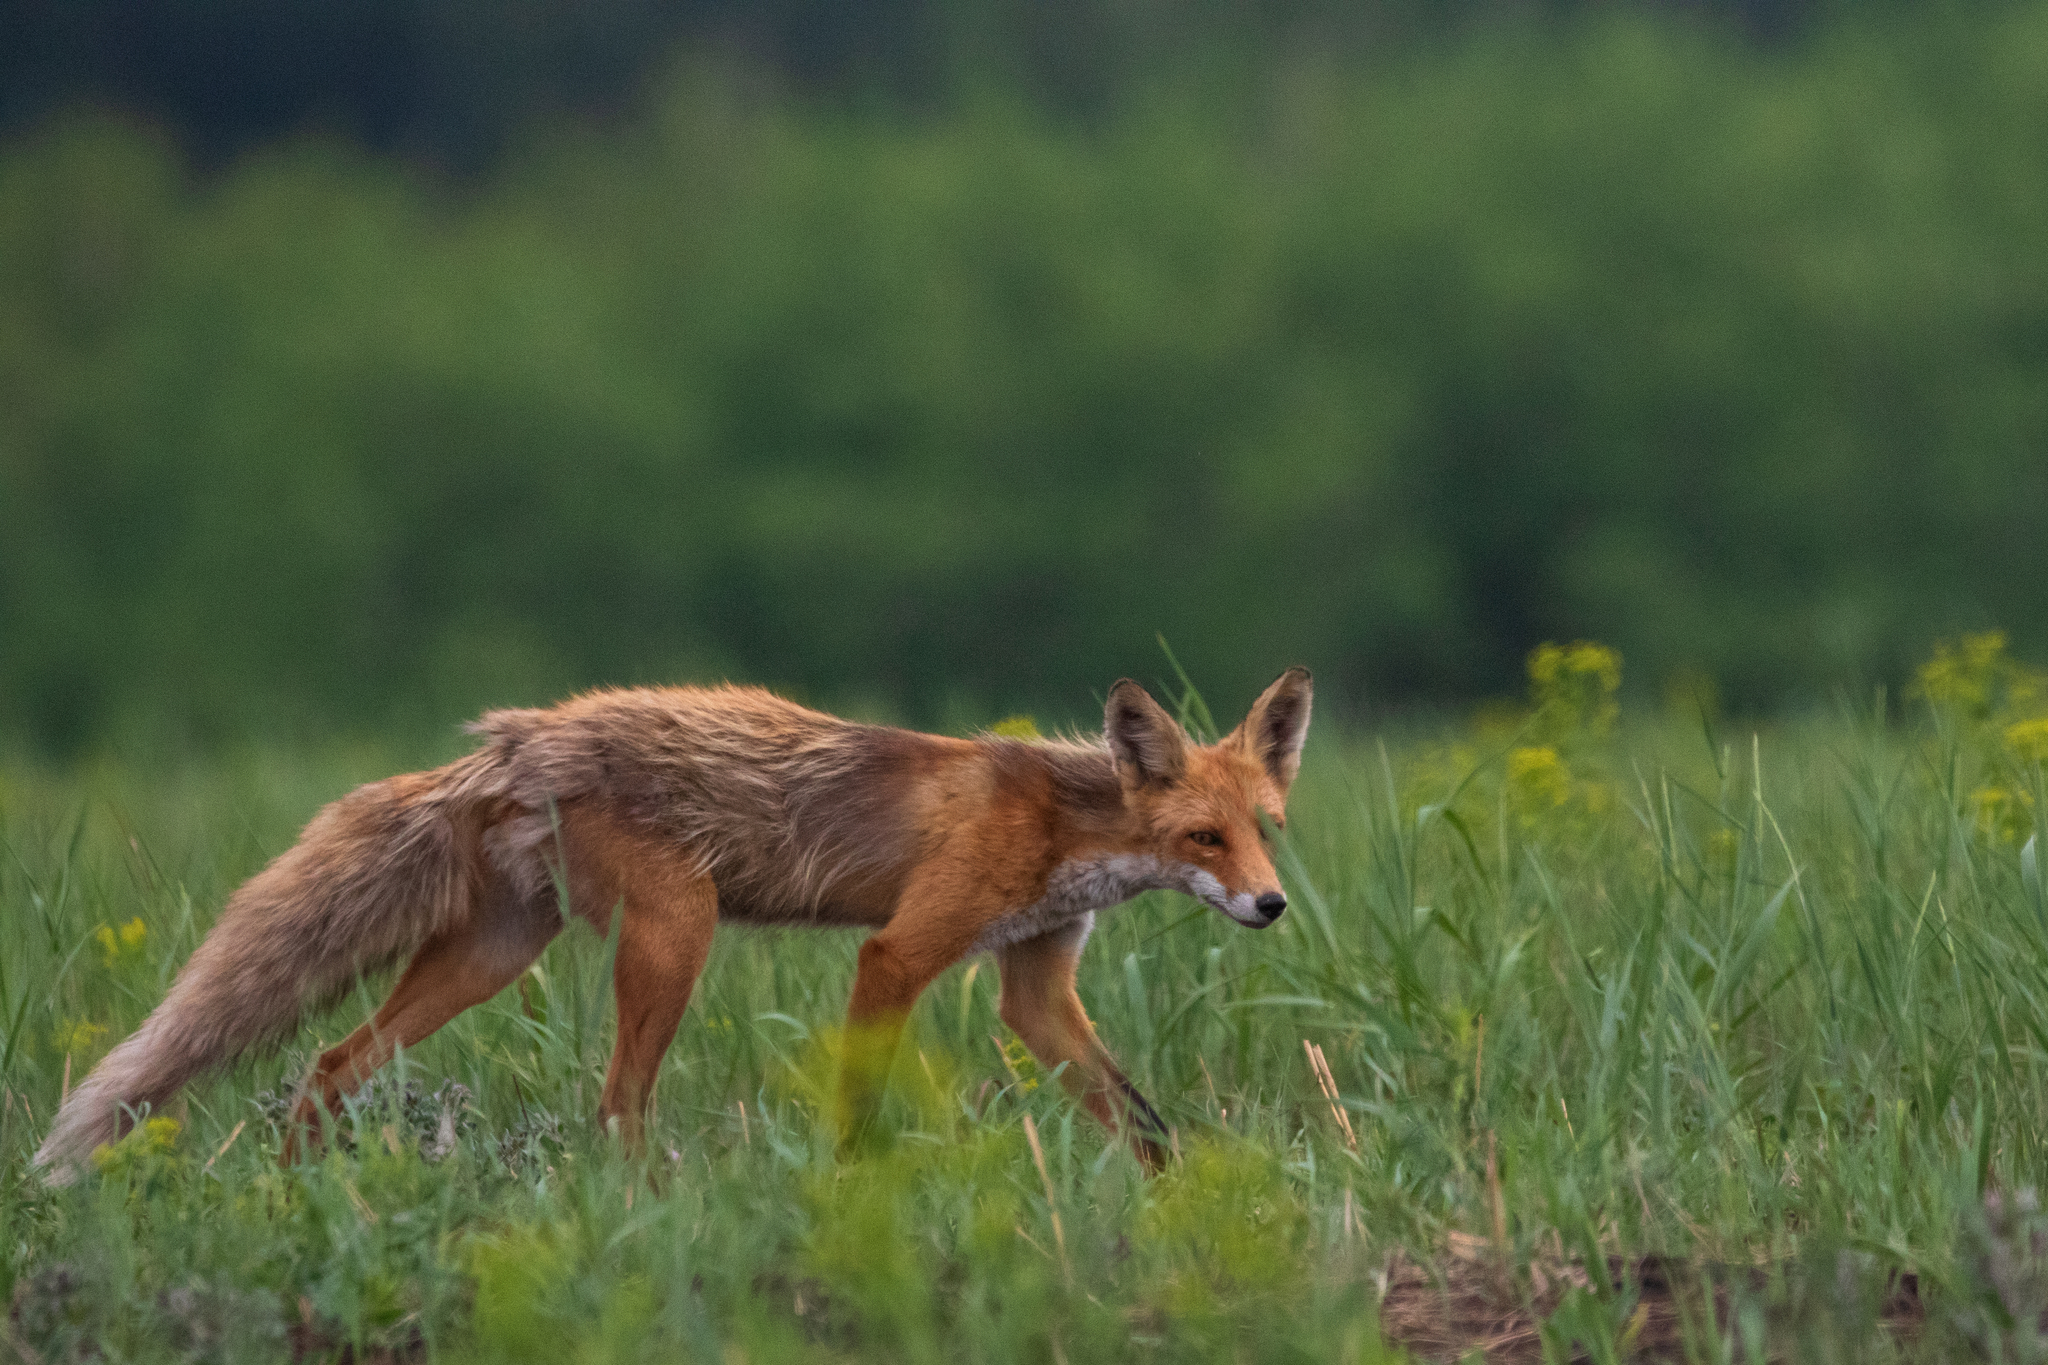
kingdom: Animalia
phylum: Chordata
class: Mammalia
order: Carnivora
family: Canidae
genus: Vulpes
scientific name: Vulpes vulpes
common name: Red fox
